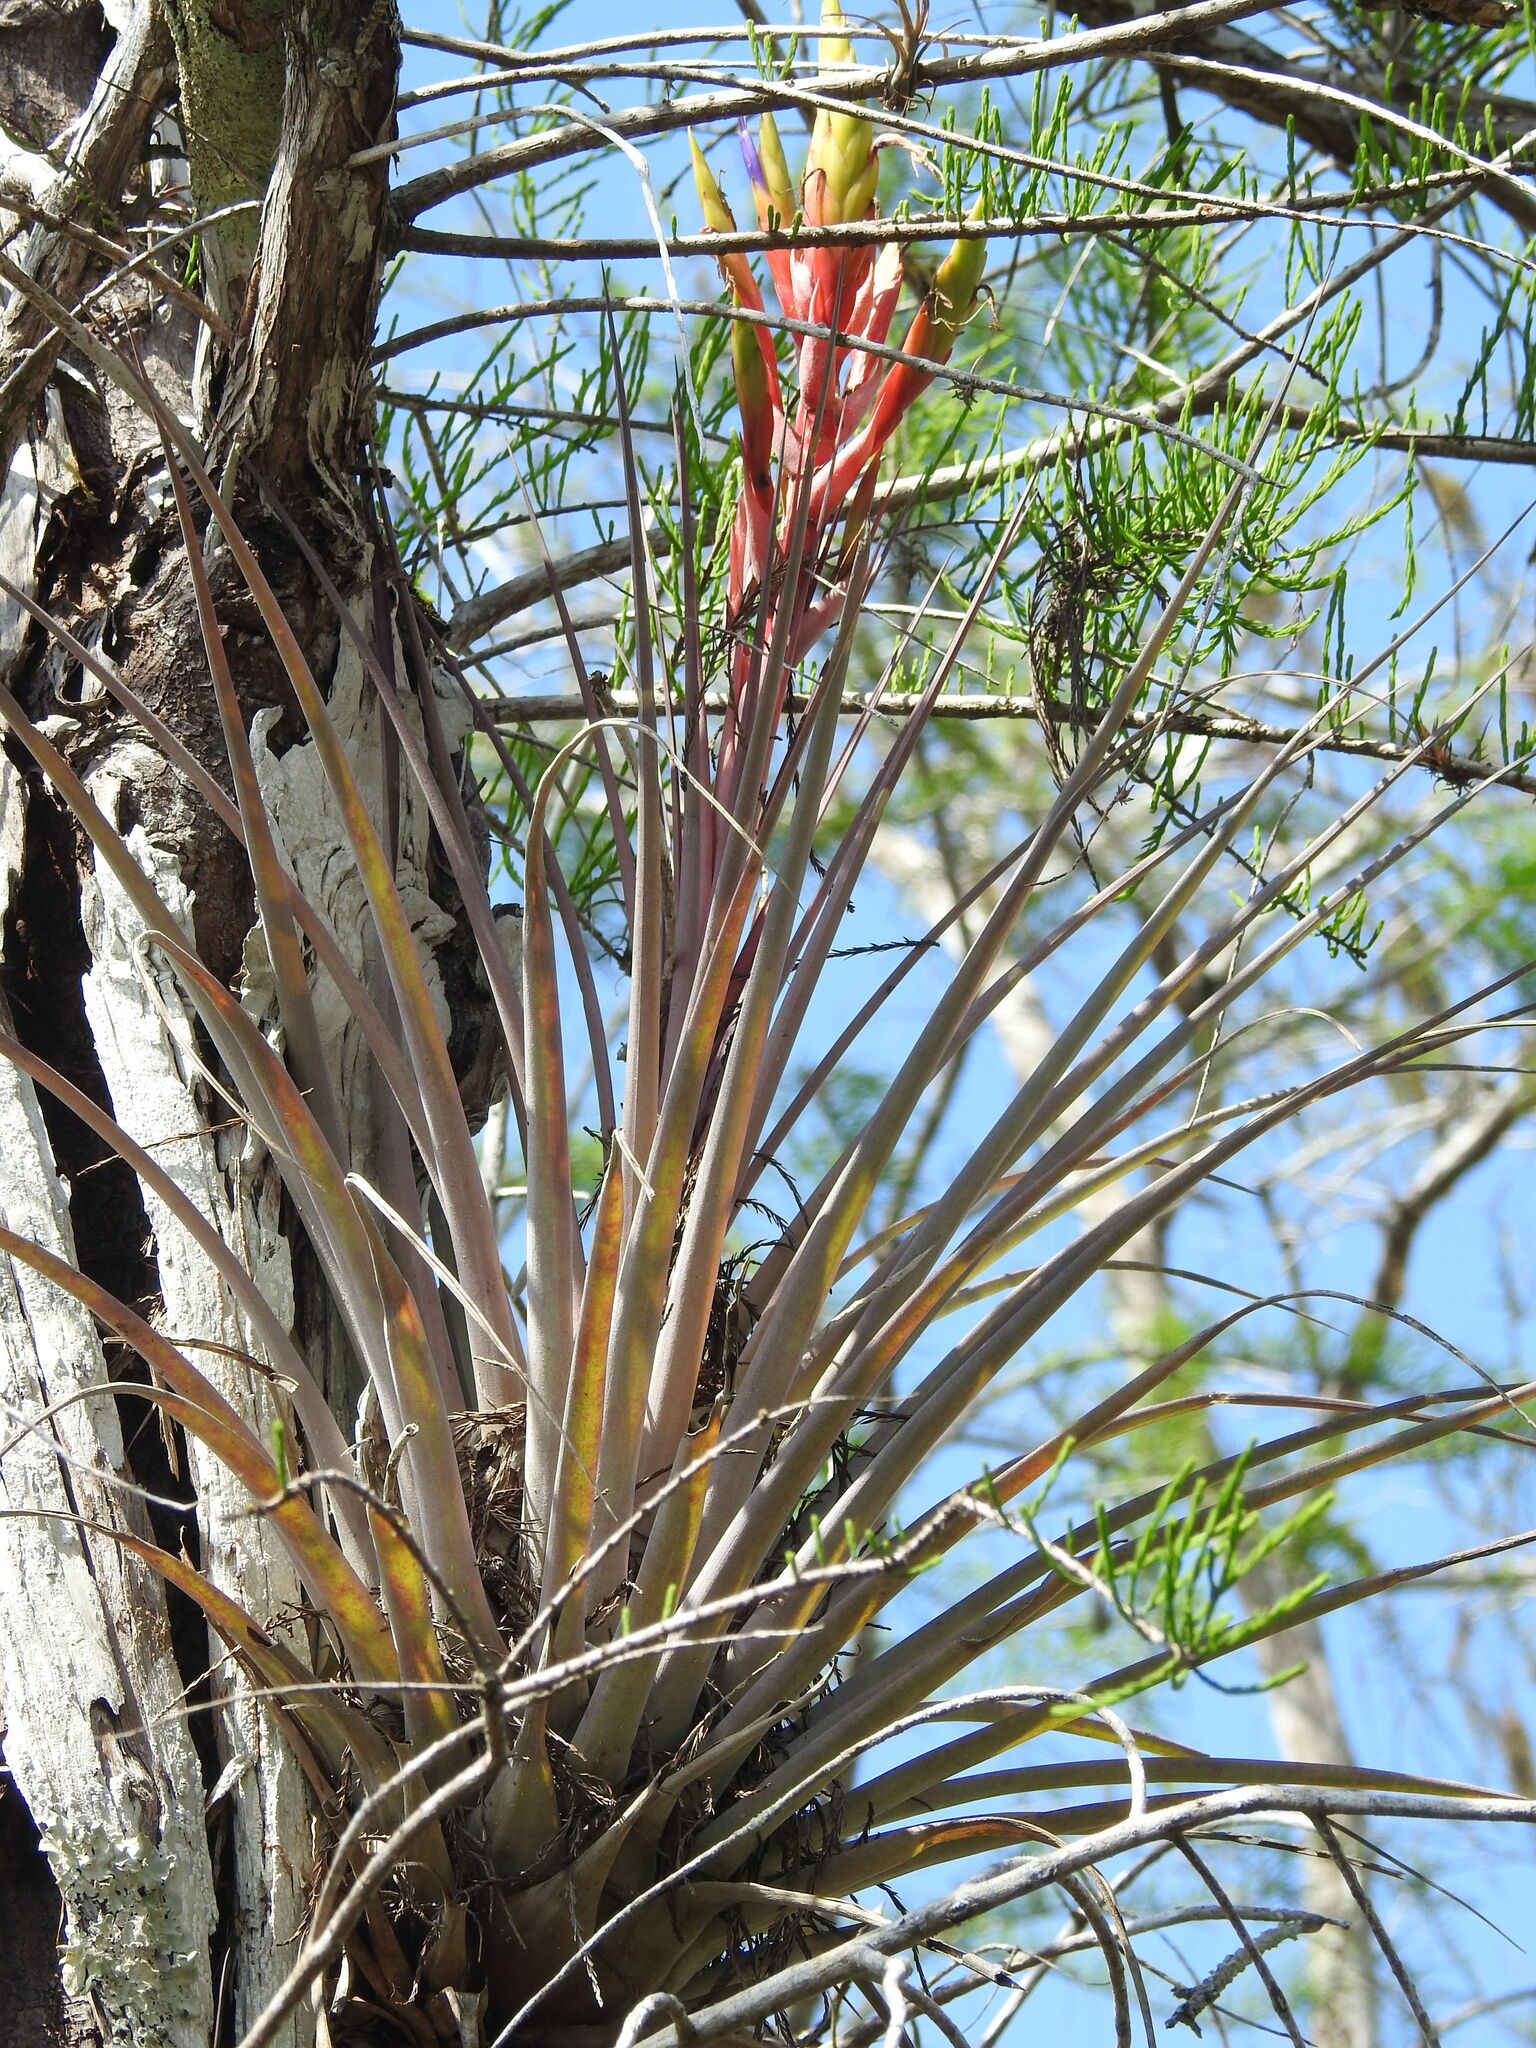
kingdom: Plantae
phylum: Tracheophyta
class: Liliopsida
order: Poales
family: Bromeliaceae
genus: Tillandsia
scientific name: Tillandsia fasciculata
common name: Giant airplant
